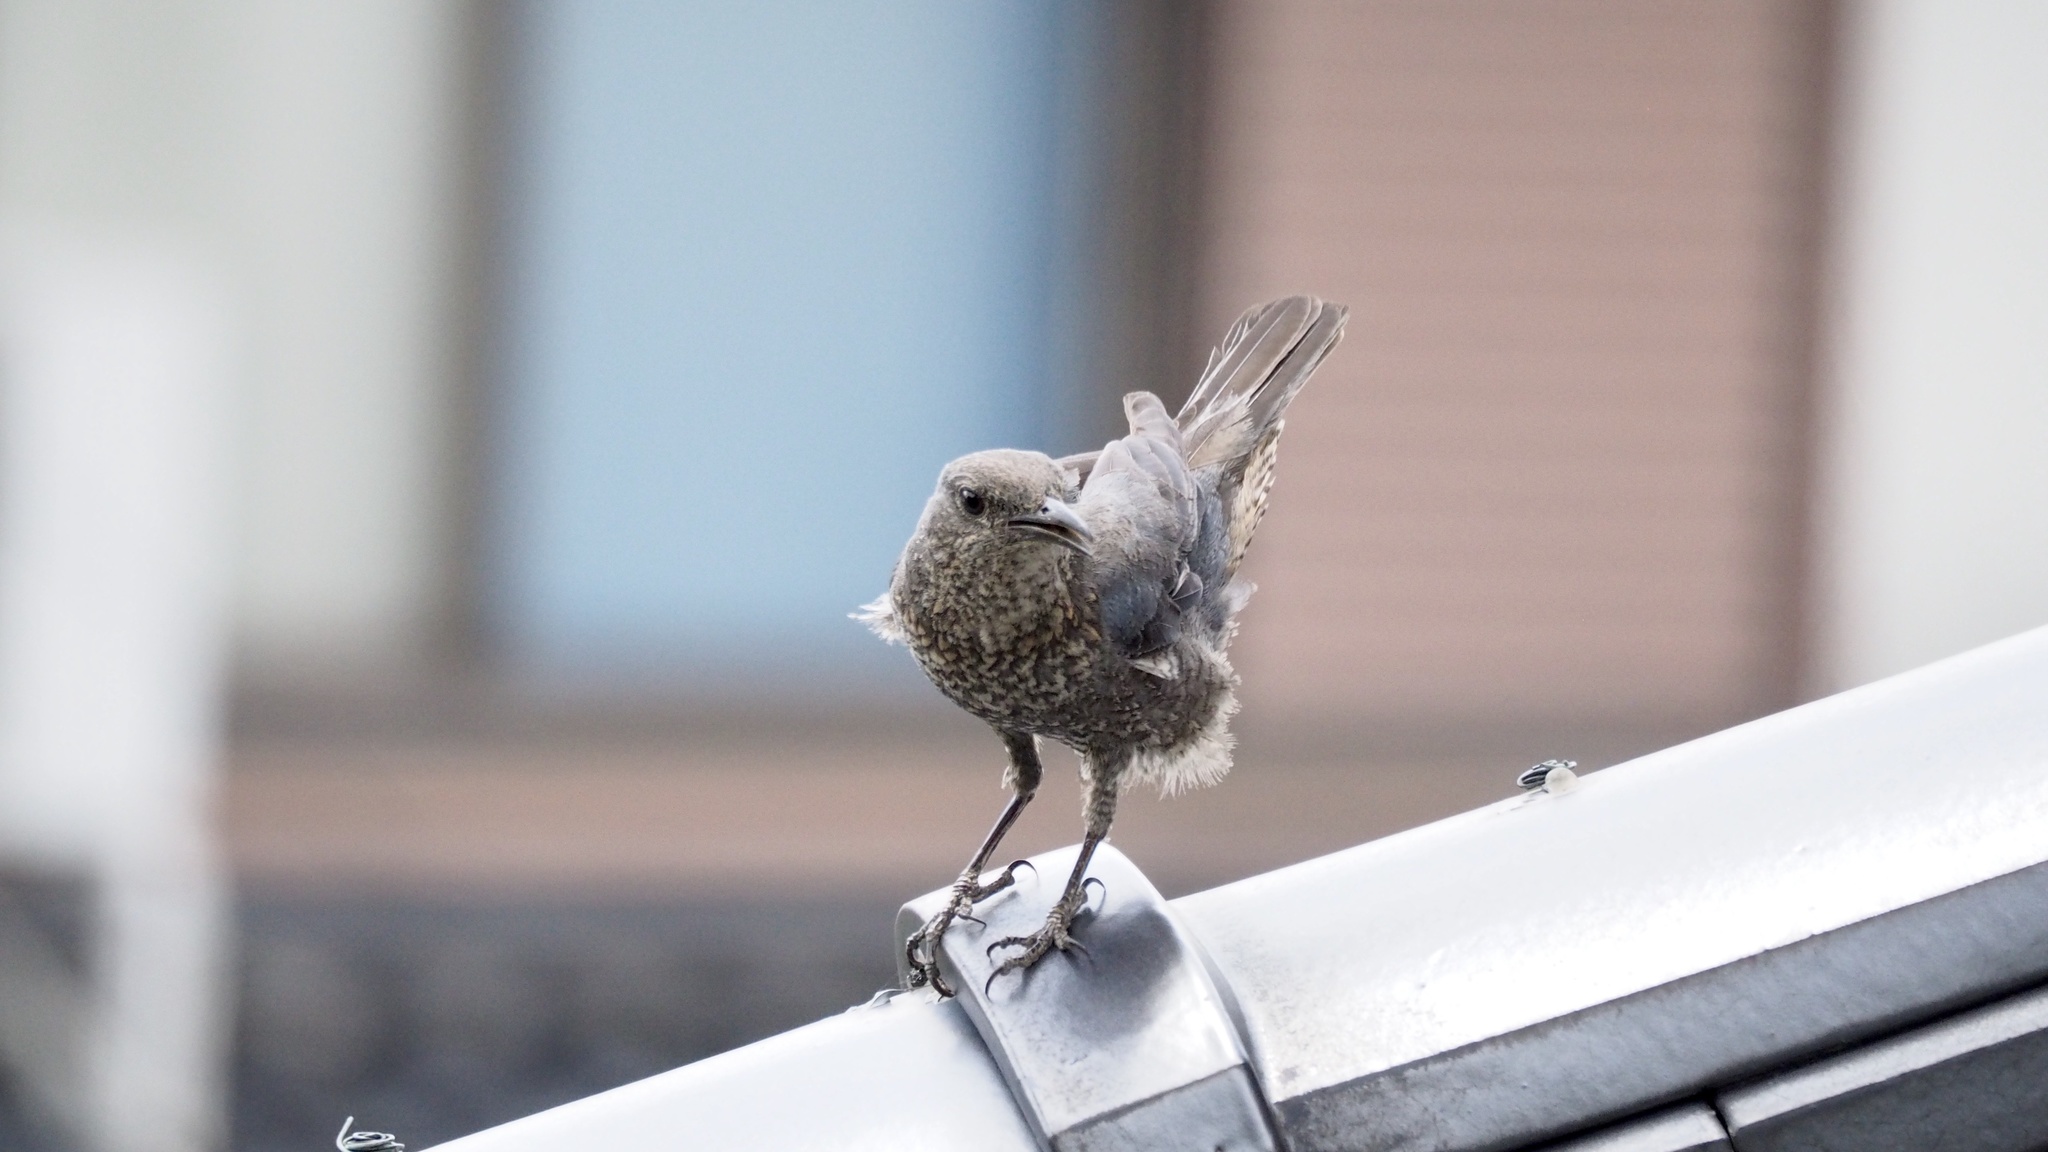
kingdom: Animalia
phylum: Chordata
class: Aves
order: Passeriformes
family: Muscicapidae
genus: Monticola
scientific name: Monticola solitarius
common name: Blue rock thrush
